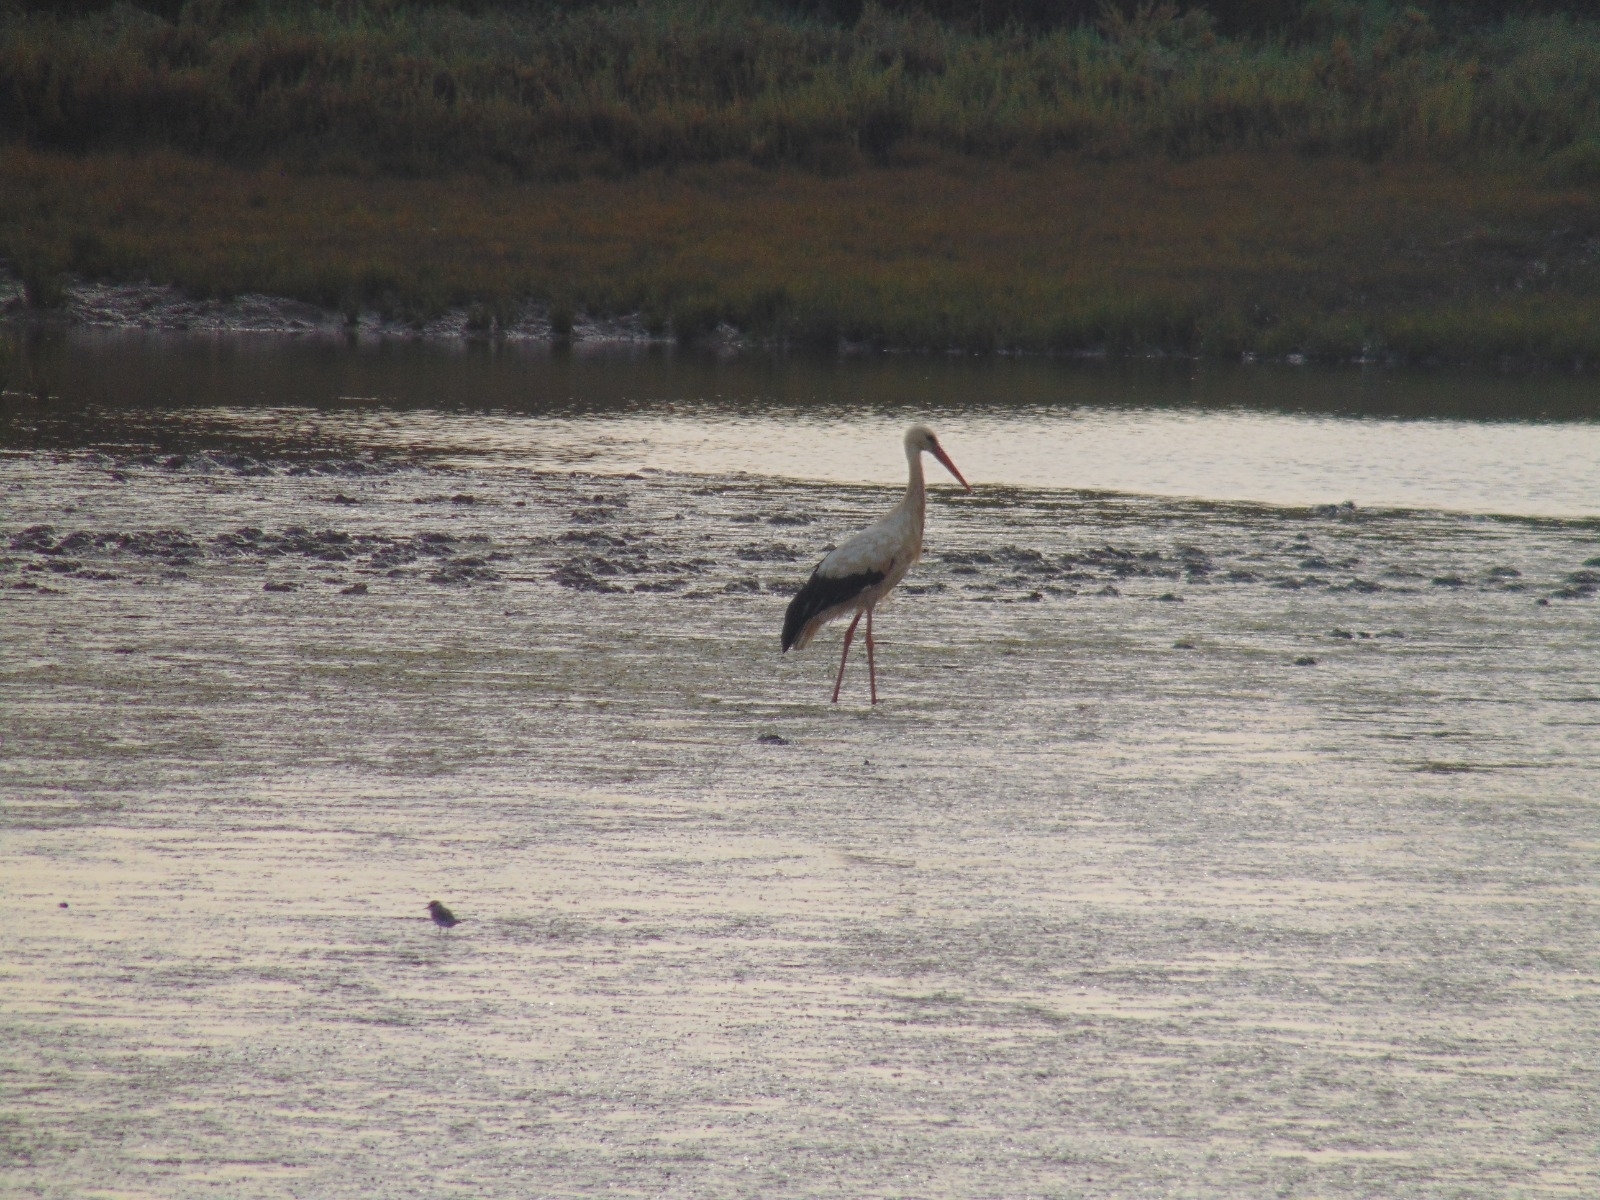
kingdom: Animalia
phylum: Chordata
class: Aves
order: Ciconiiformes
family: Ciconiidae
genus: Ciconia
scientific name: Ciconia ciconia
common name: White stork
